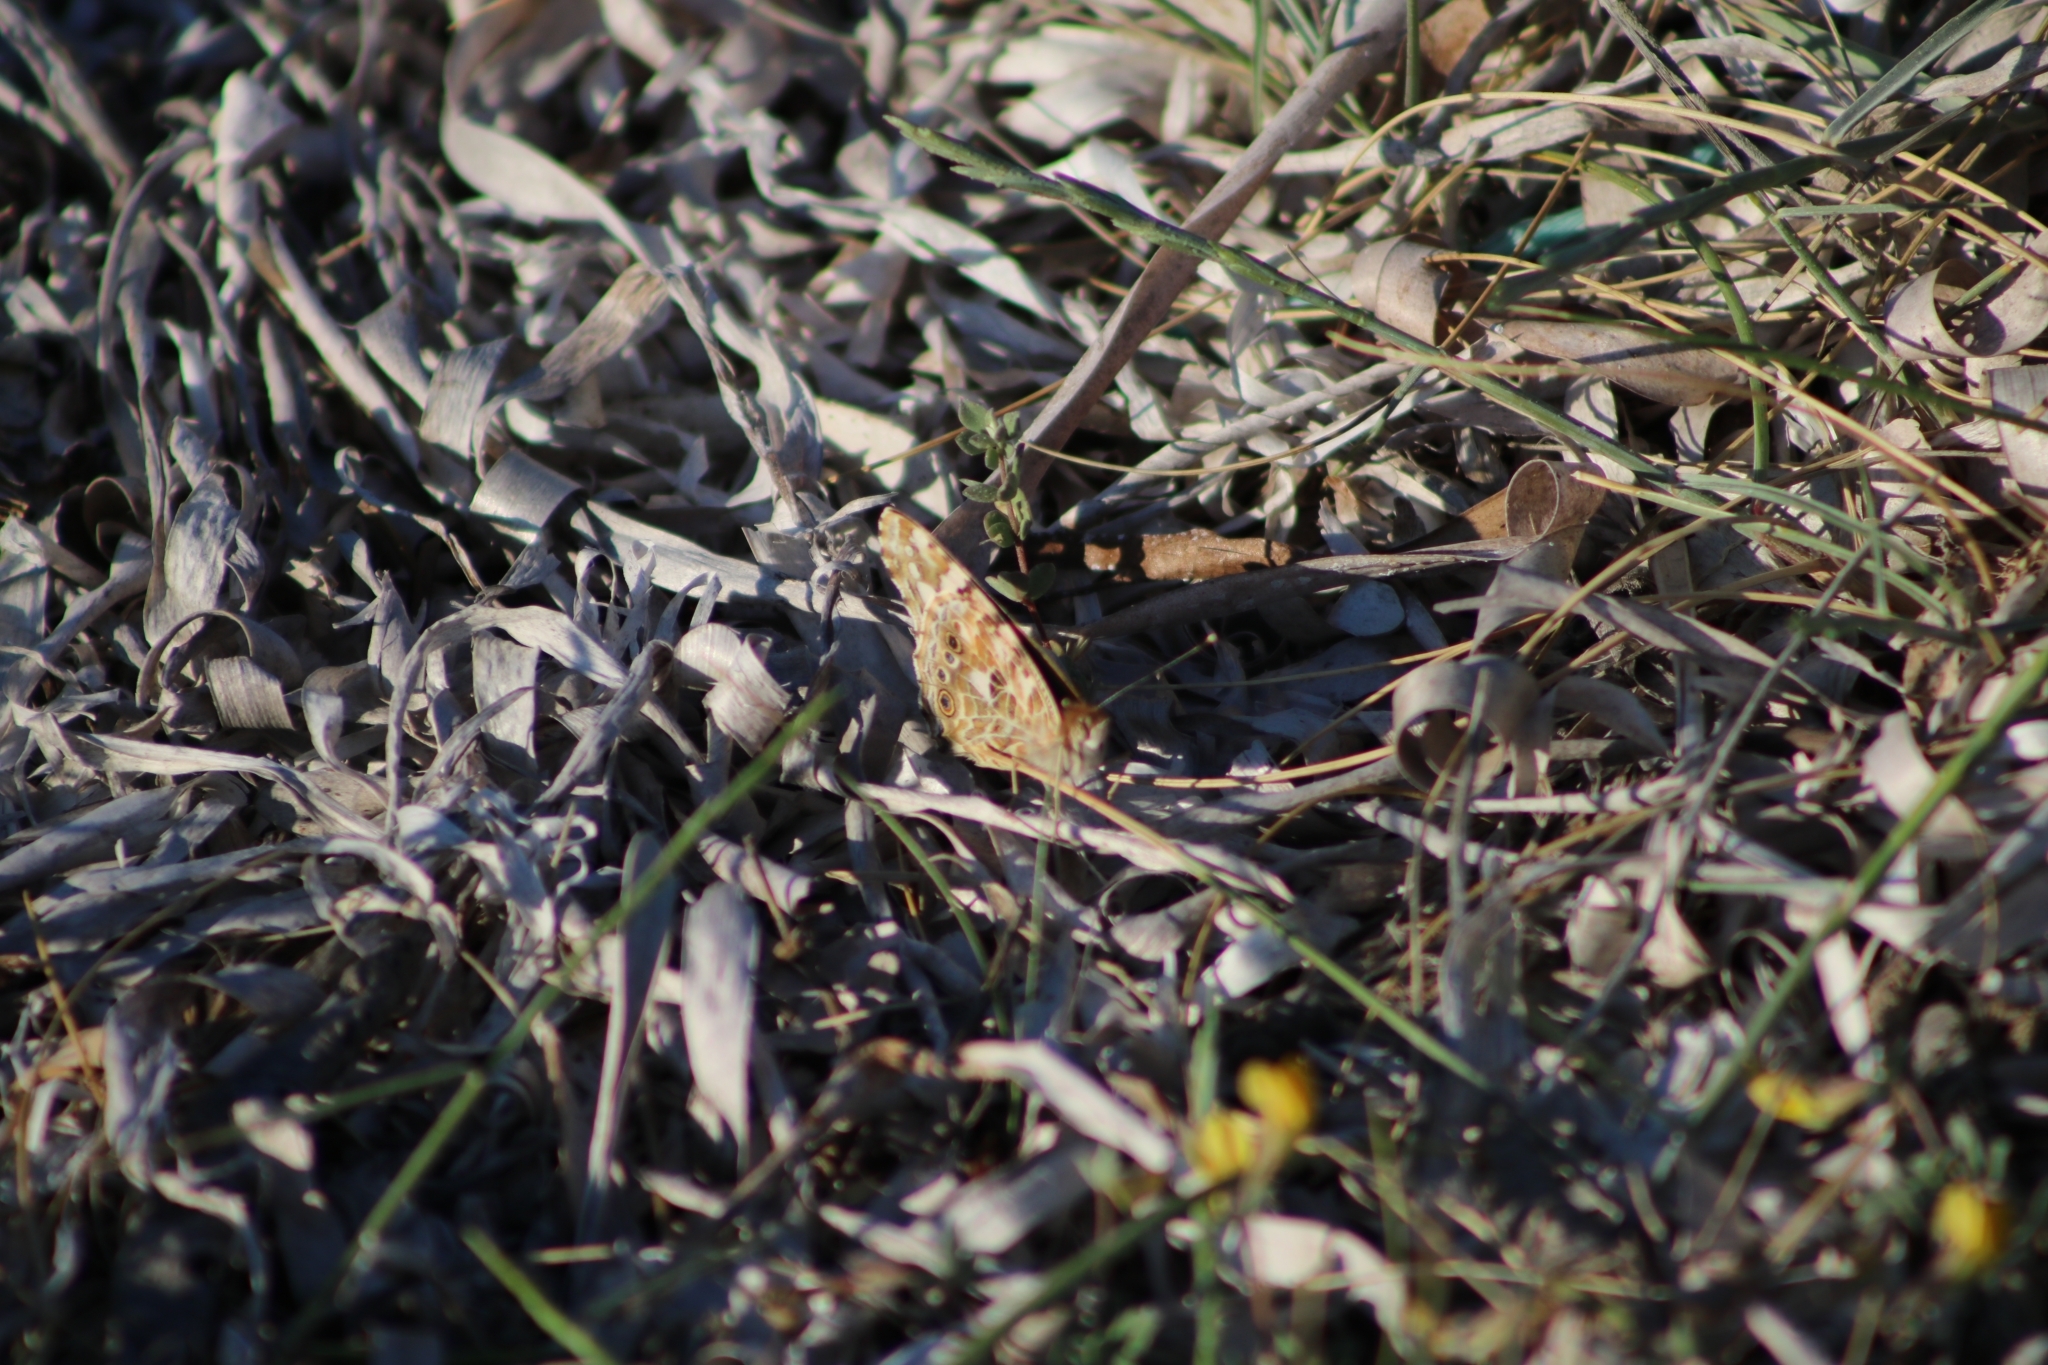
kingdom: Animalia
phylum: Arthropoda
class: Insecta
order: Lepidoptera
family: Nymphalidae
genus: Vanessa
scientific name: Vanessa cardui
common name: Painted lady
